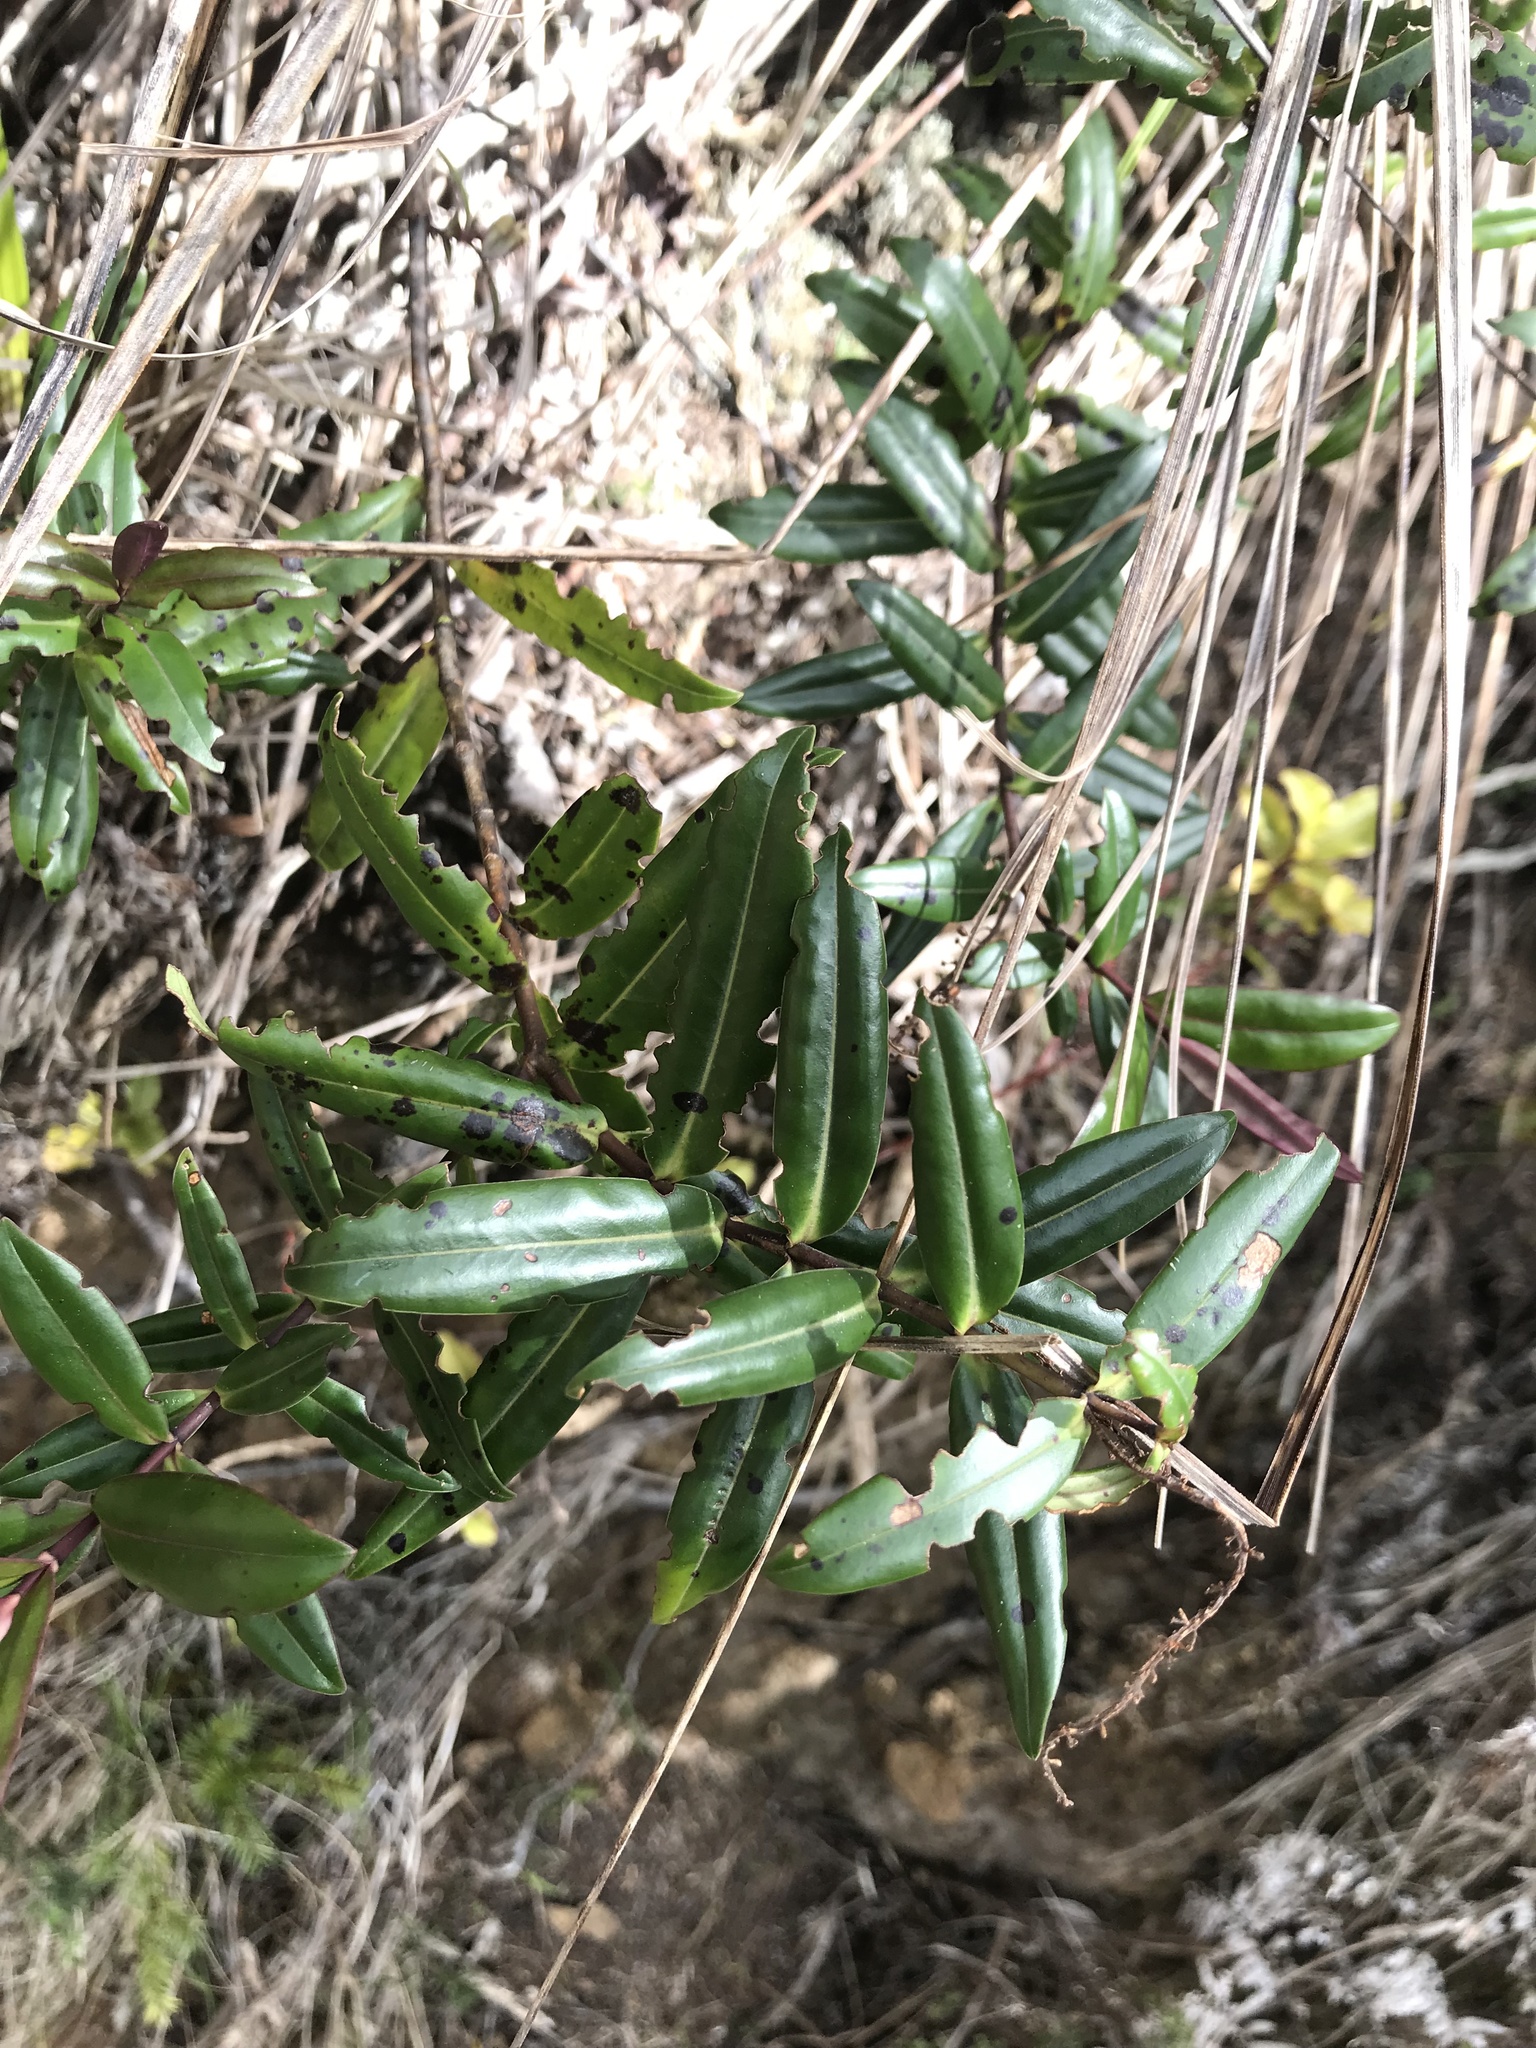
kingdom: Plantae
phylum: Tracheophyta
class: Magnoliopsida
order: Lamiales
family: Plantaginaceae
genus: Veronica
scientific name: Veronica bishopiana
